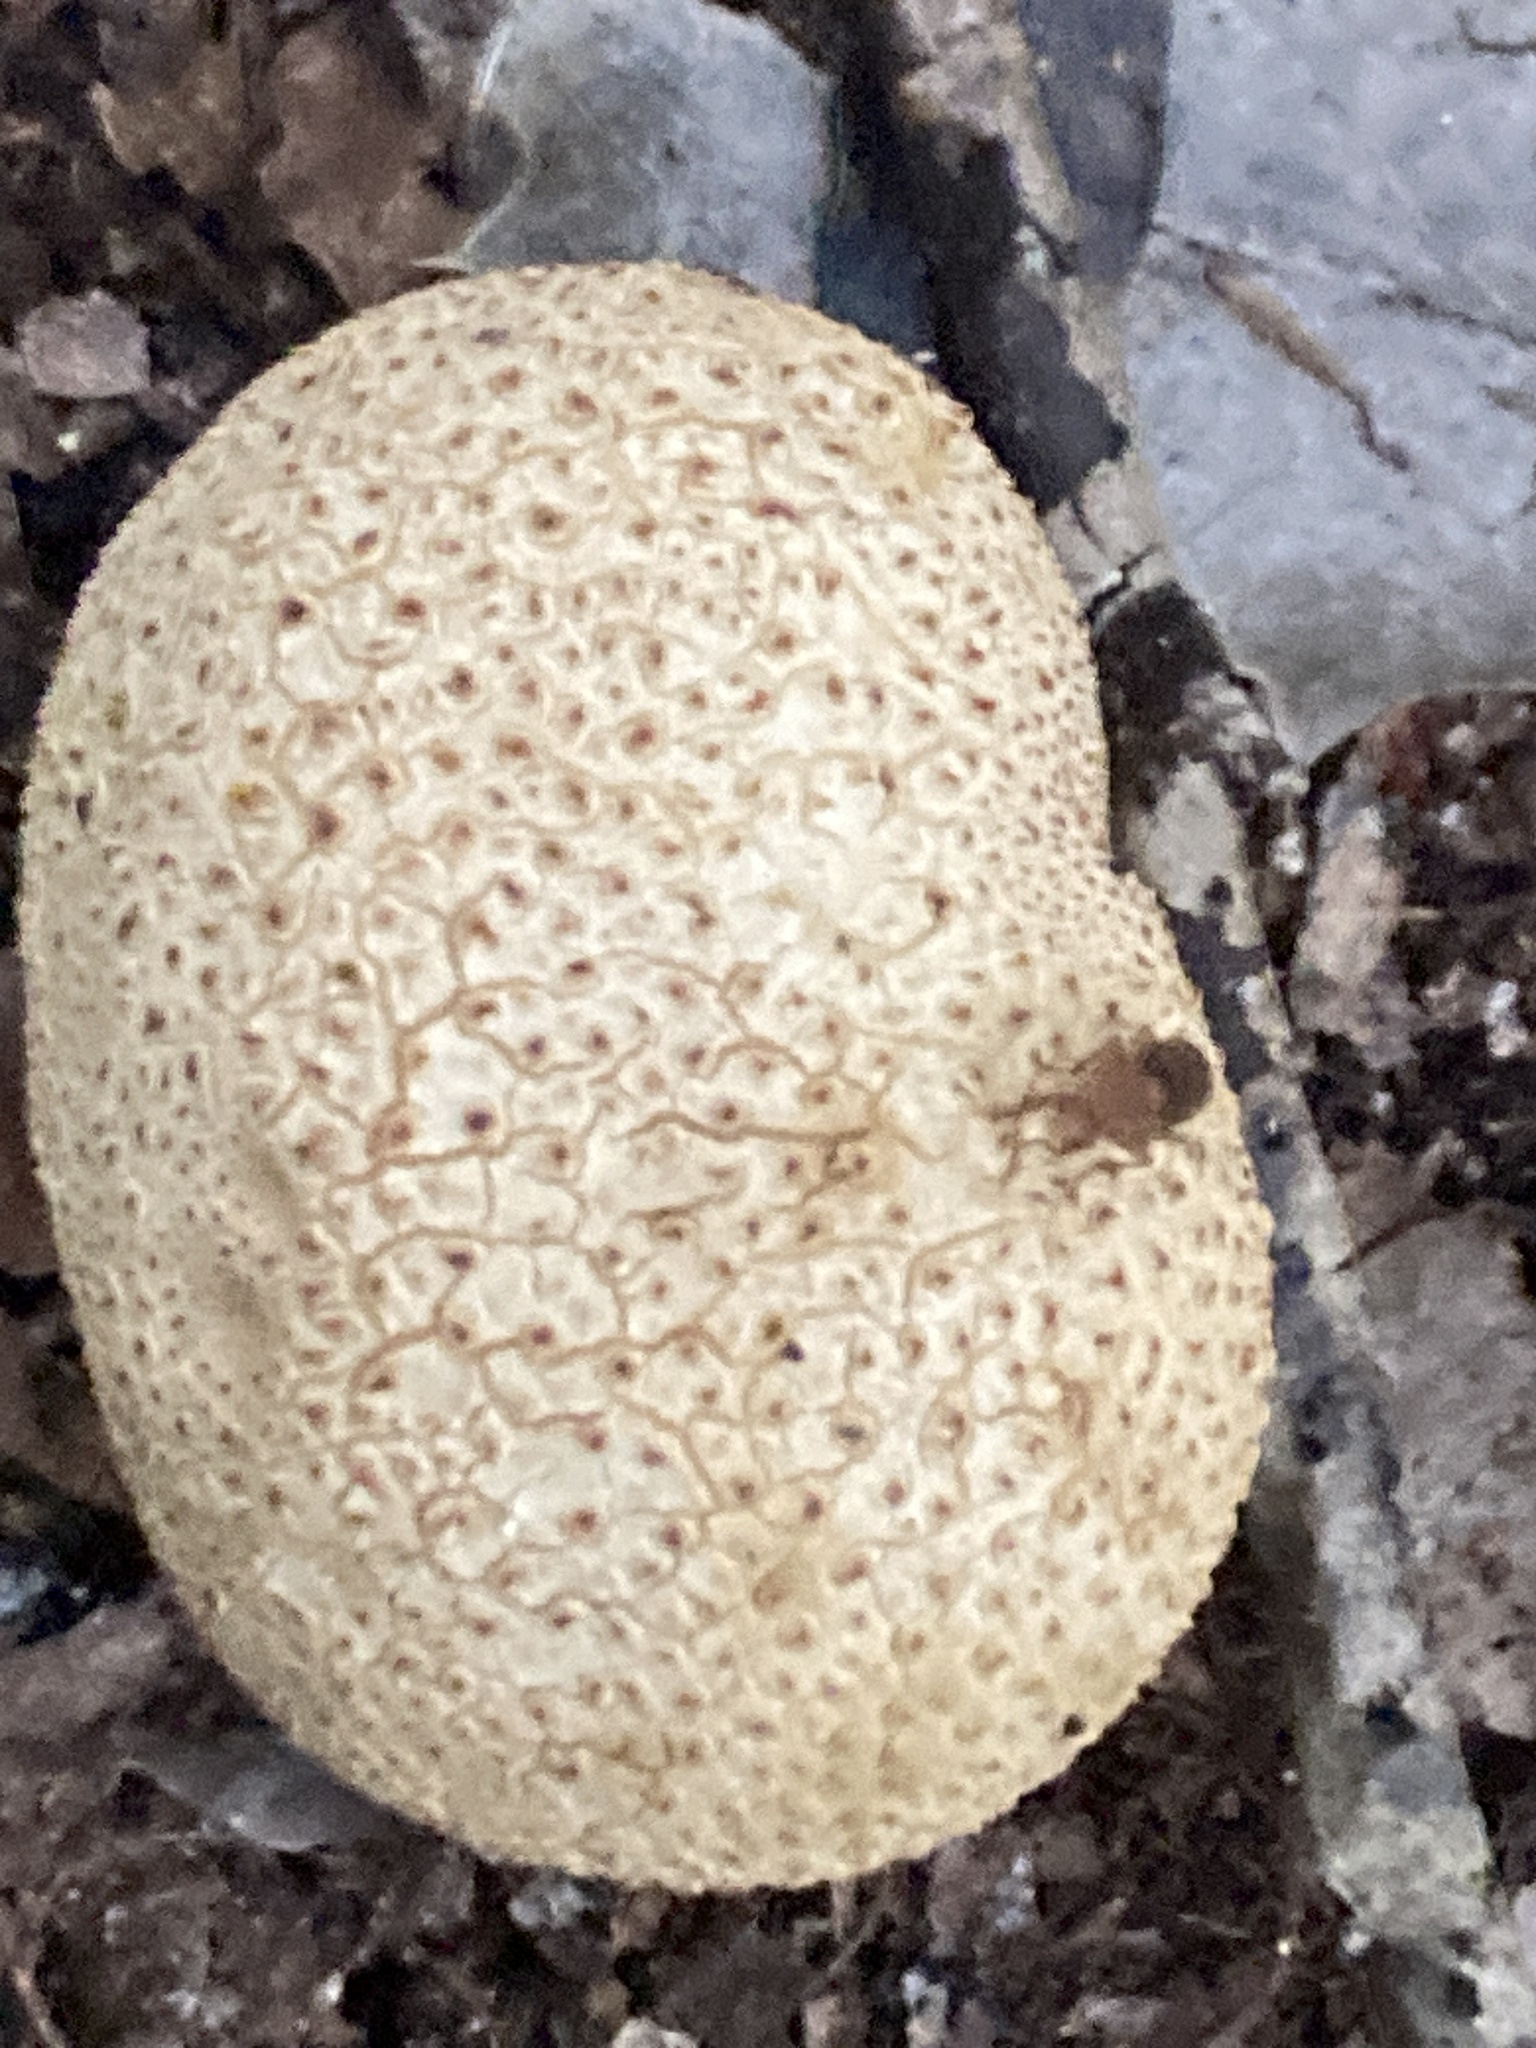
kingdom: Fungi
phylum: Basidiomycota
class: Agaricomycetes
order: Boletales
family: Sclerodermataceae
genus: Scleroderma
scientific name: Scleroderma citrinum
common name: Common earthball
